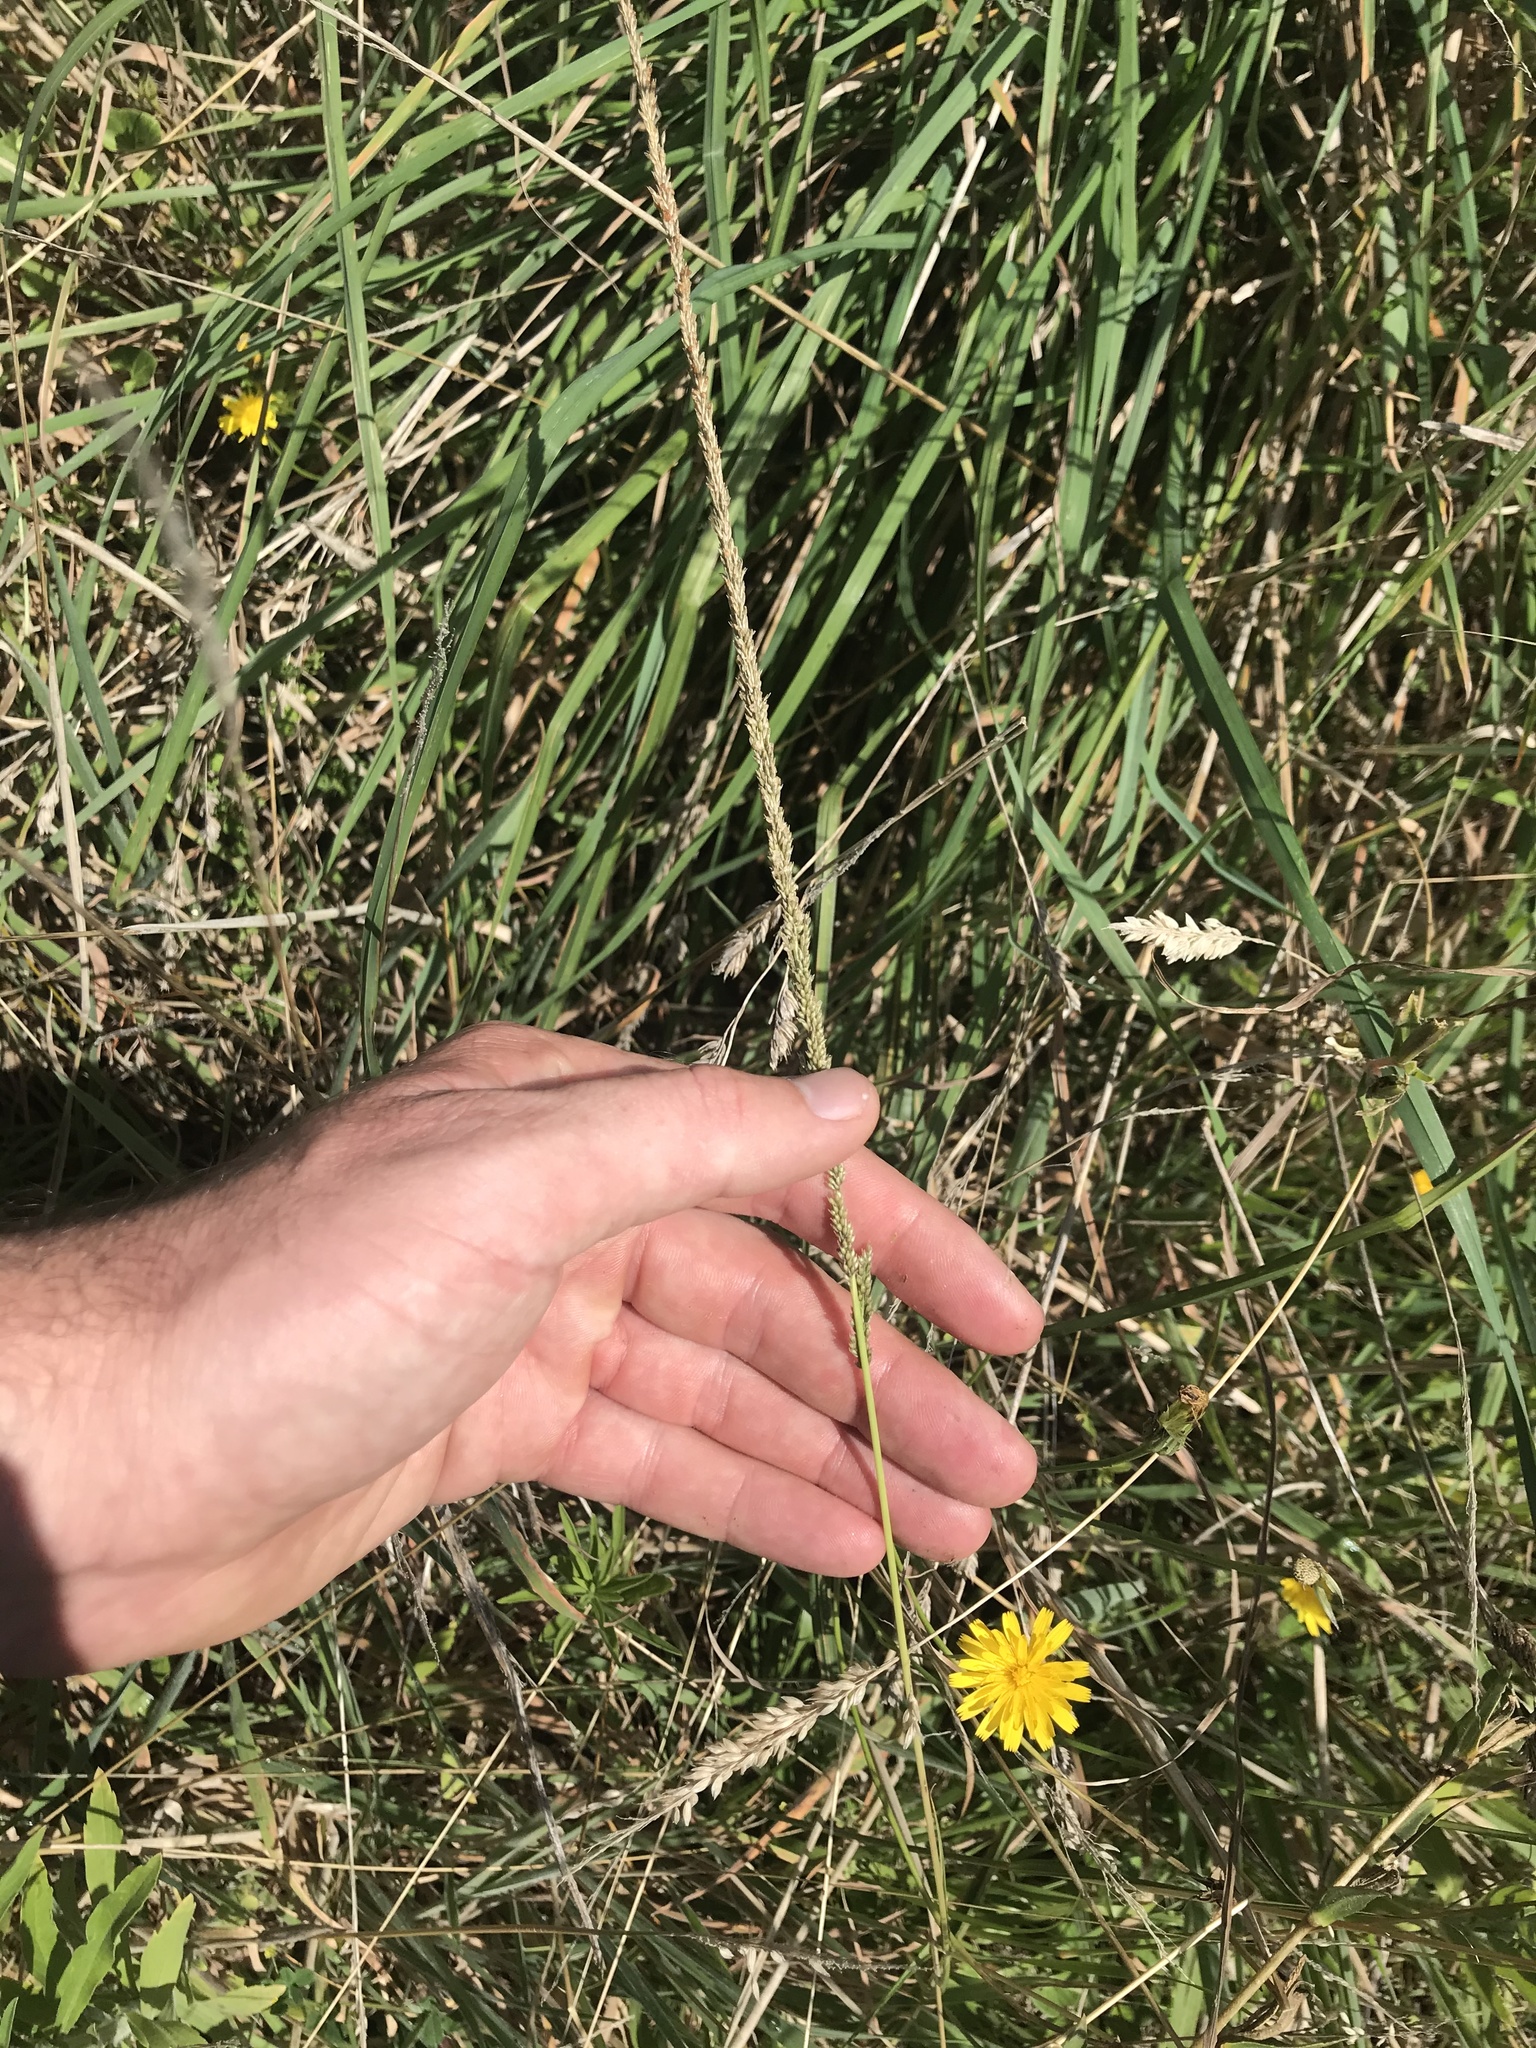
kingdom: Plantae
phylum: Tracheophyta
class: Liliopsida
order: Poales
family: Poaceae
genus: Sporobolus
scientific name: Sporobolus africanus
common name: African dropseed
